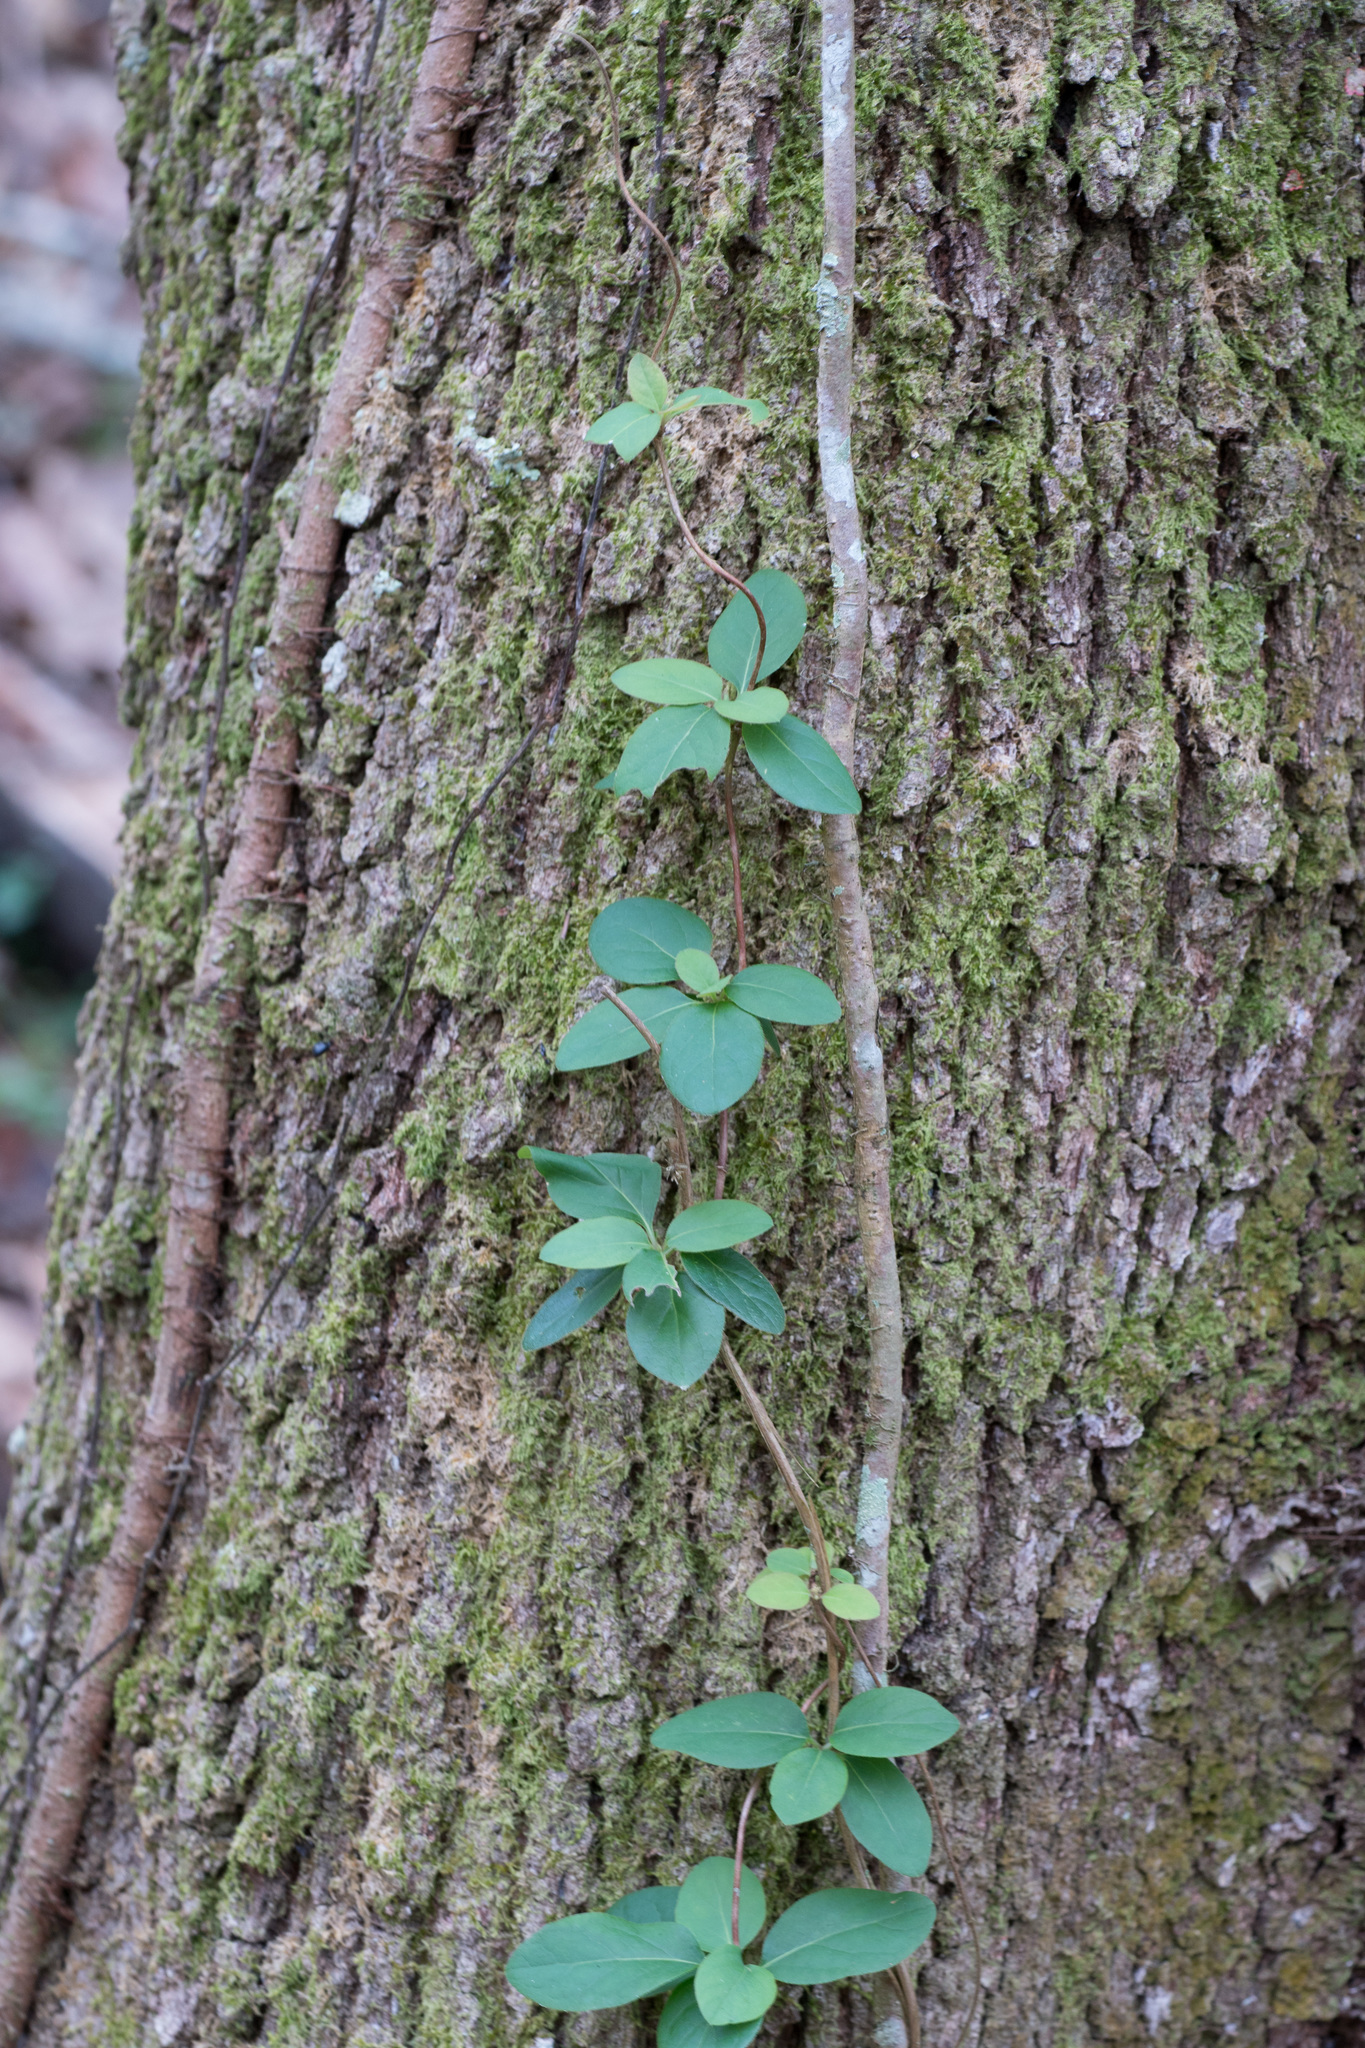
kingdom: Plantae
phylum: Tracheophyta
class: Magnoliopsida
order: Dipsacales
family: Caprifoliaceae
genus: Lonicera
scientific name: Lonicera japonica
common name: Japanese honeysuckle
